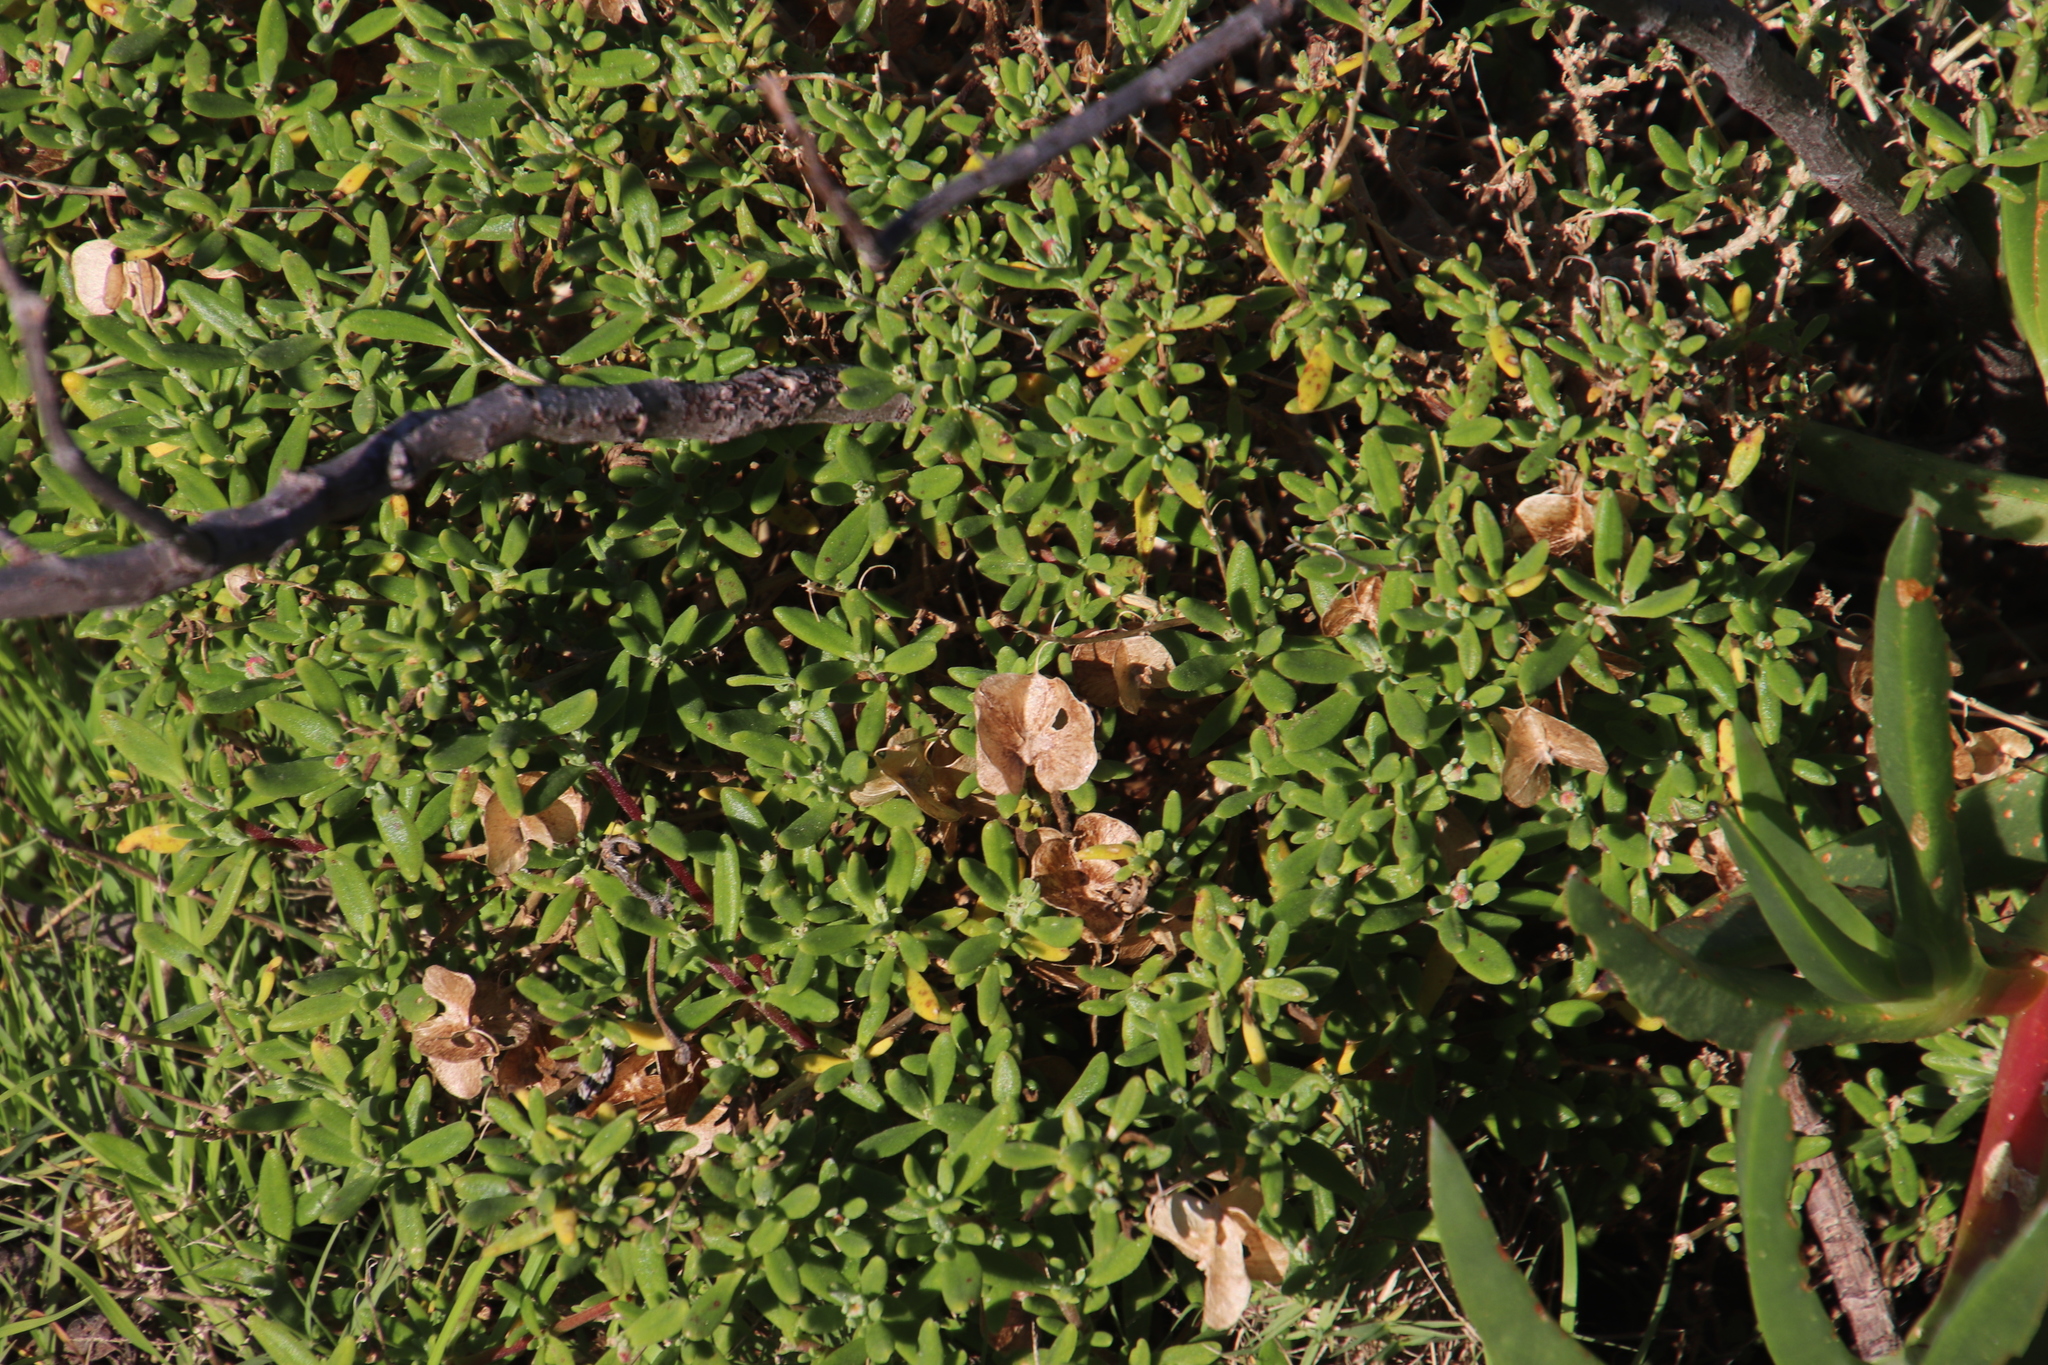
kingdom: Plantae
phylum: Tracheophyta
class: Magnoliopsida
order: Caryophyllales
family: Aizoaceae
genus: Tetragonia
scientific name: Tetragonia fruticosa
